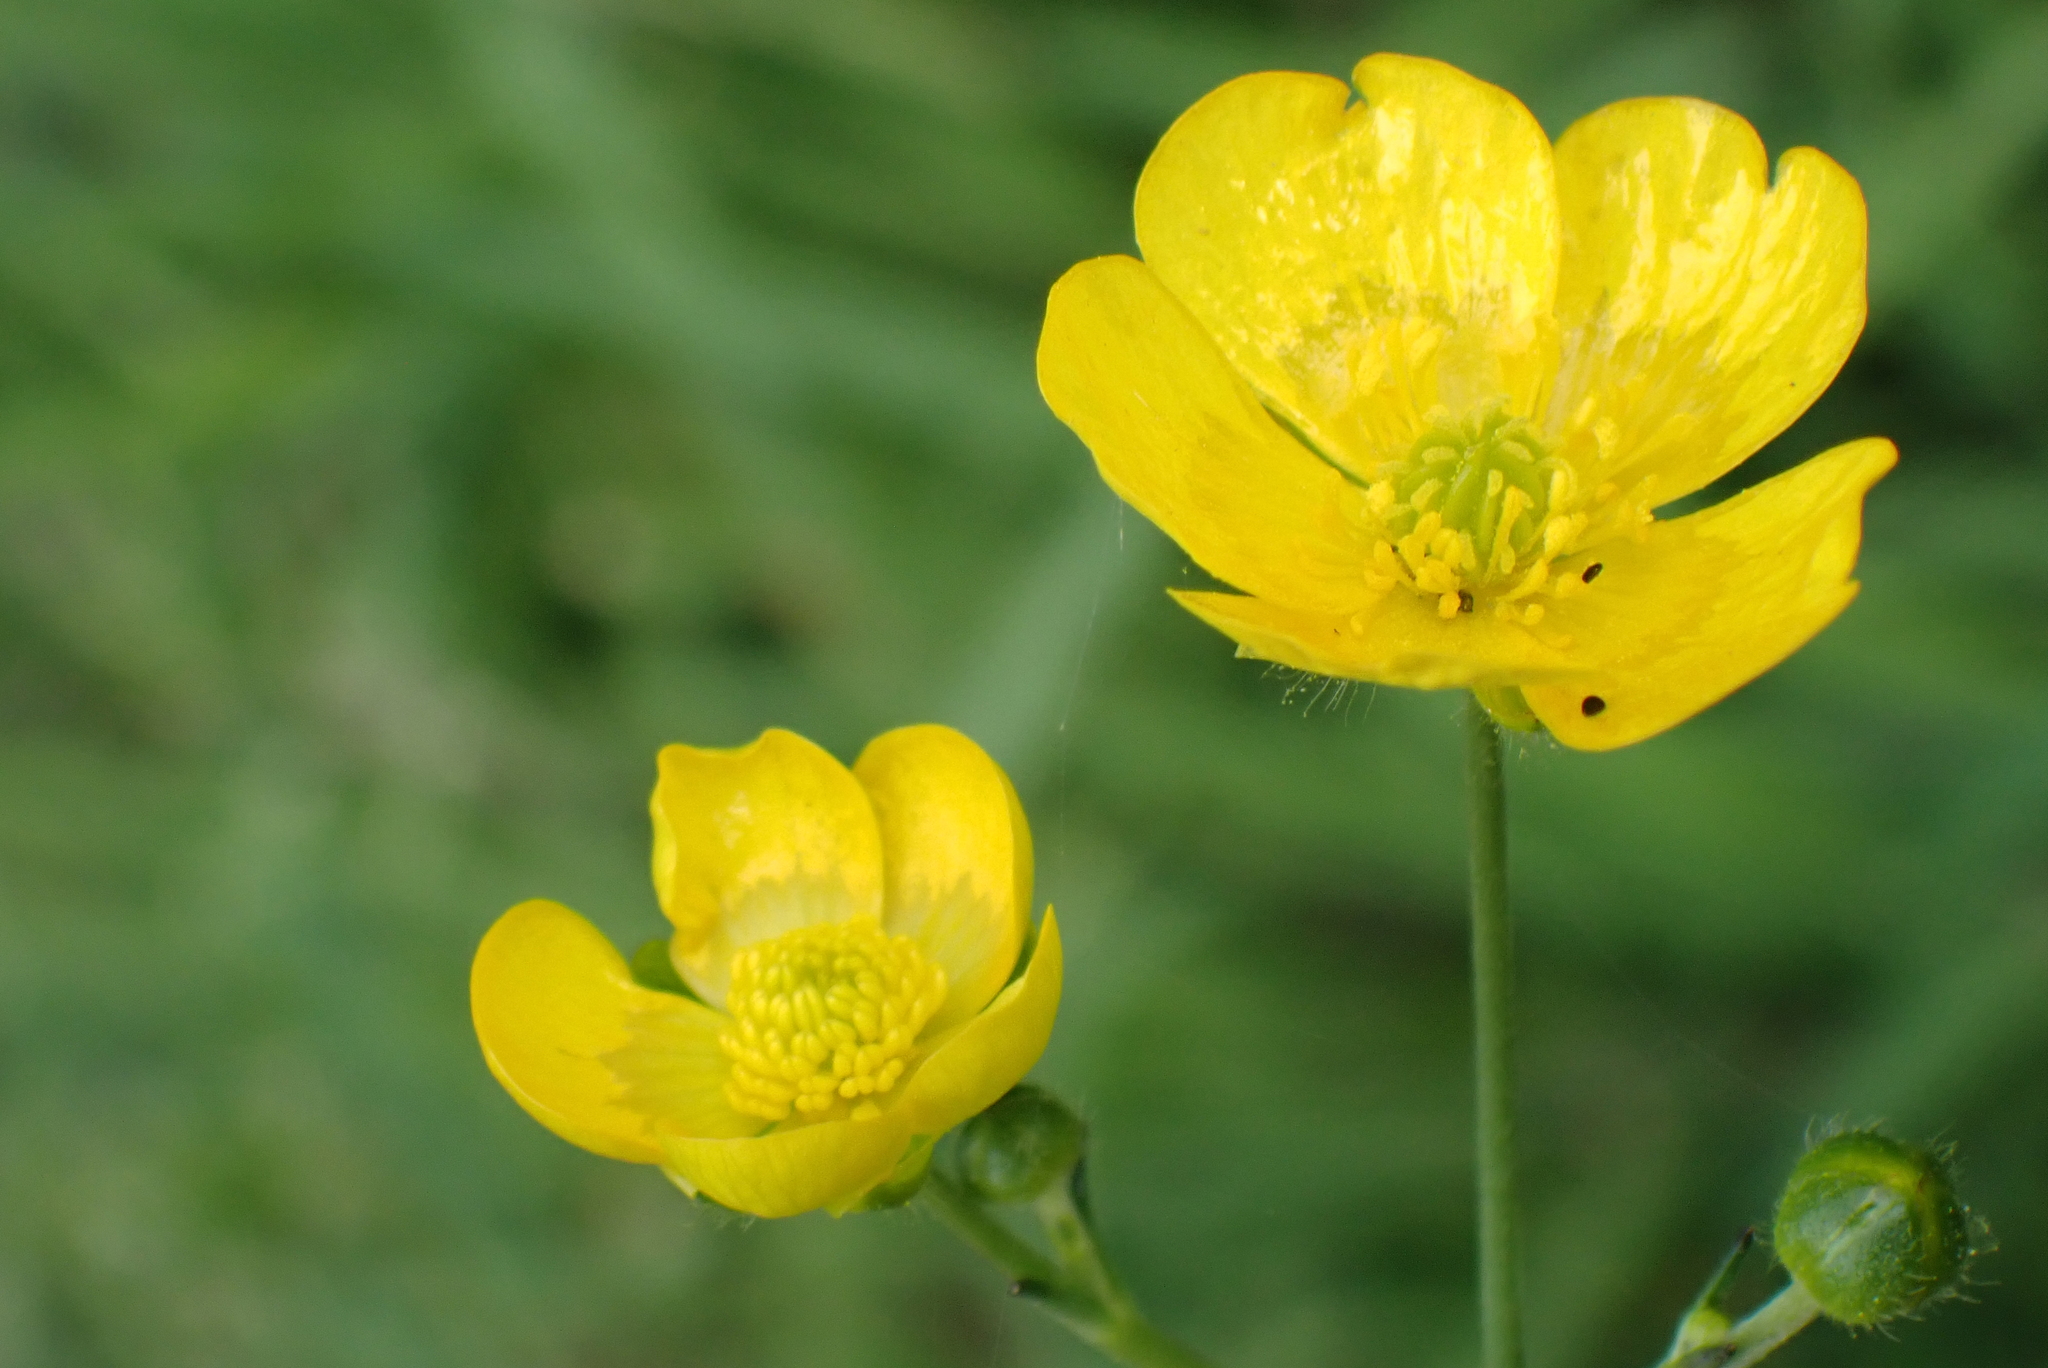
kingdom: Plantae
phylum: Tracheophyta
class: Magnoliopsida
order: Ranunculales
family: Ranunculaceae
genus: Ranunculus
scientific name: Ranunculus acris
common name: Meadow buttercup
